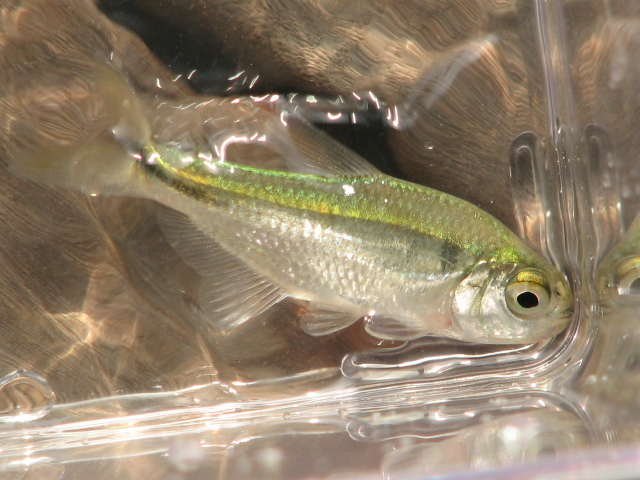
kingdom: Animalia
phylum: Chordata
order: Characiformes
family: Characidae
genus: Astyanax
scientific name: Astyanax mexicanus
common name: Mexican tetra
